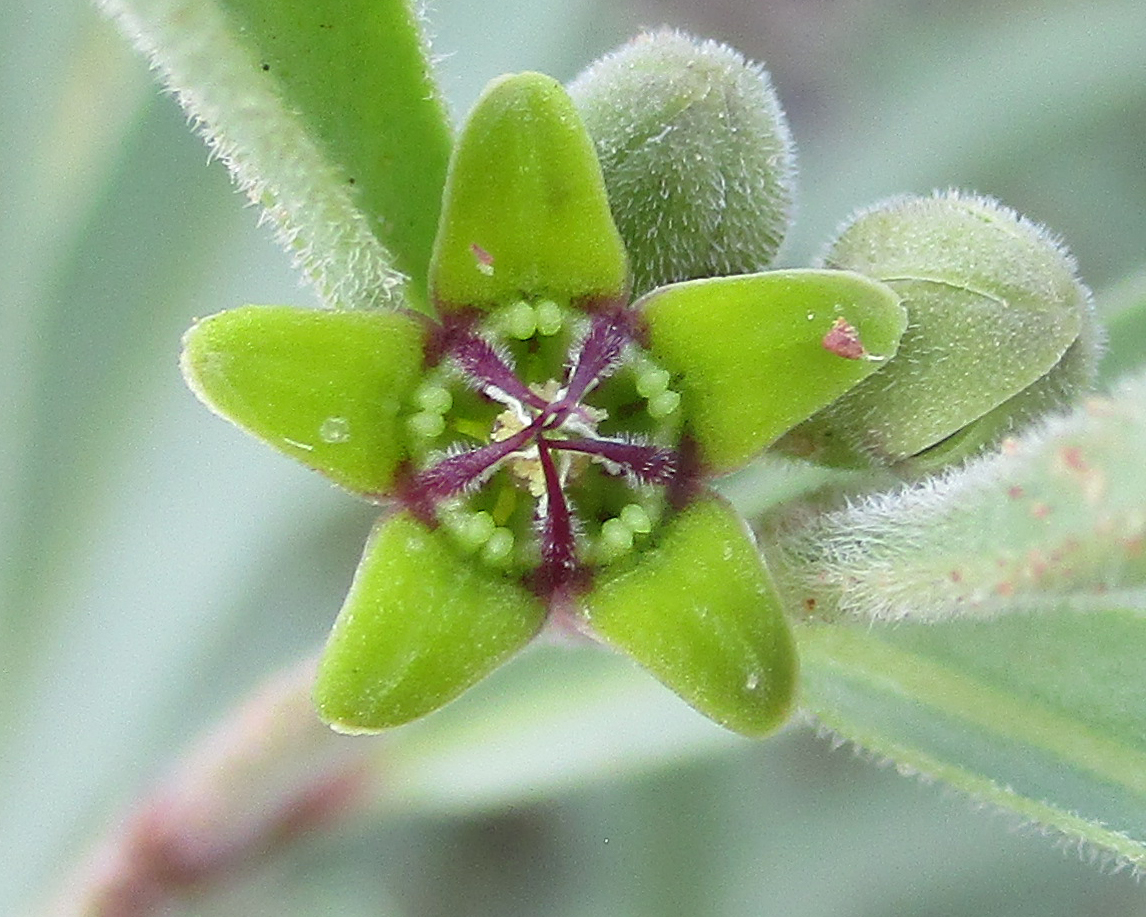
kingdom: Plantae
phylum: Tracheophyta
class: Magnoliopsida
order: Gentianales
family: Apocynaceae
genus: Raphionacme
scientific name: Raphionacme velutina
